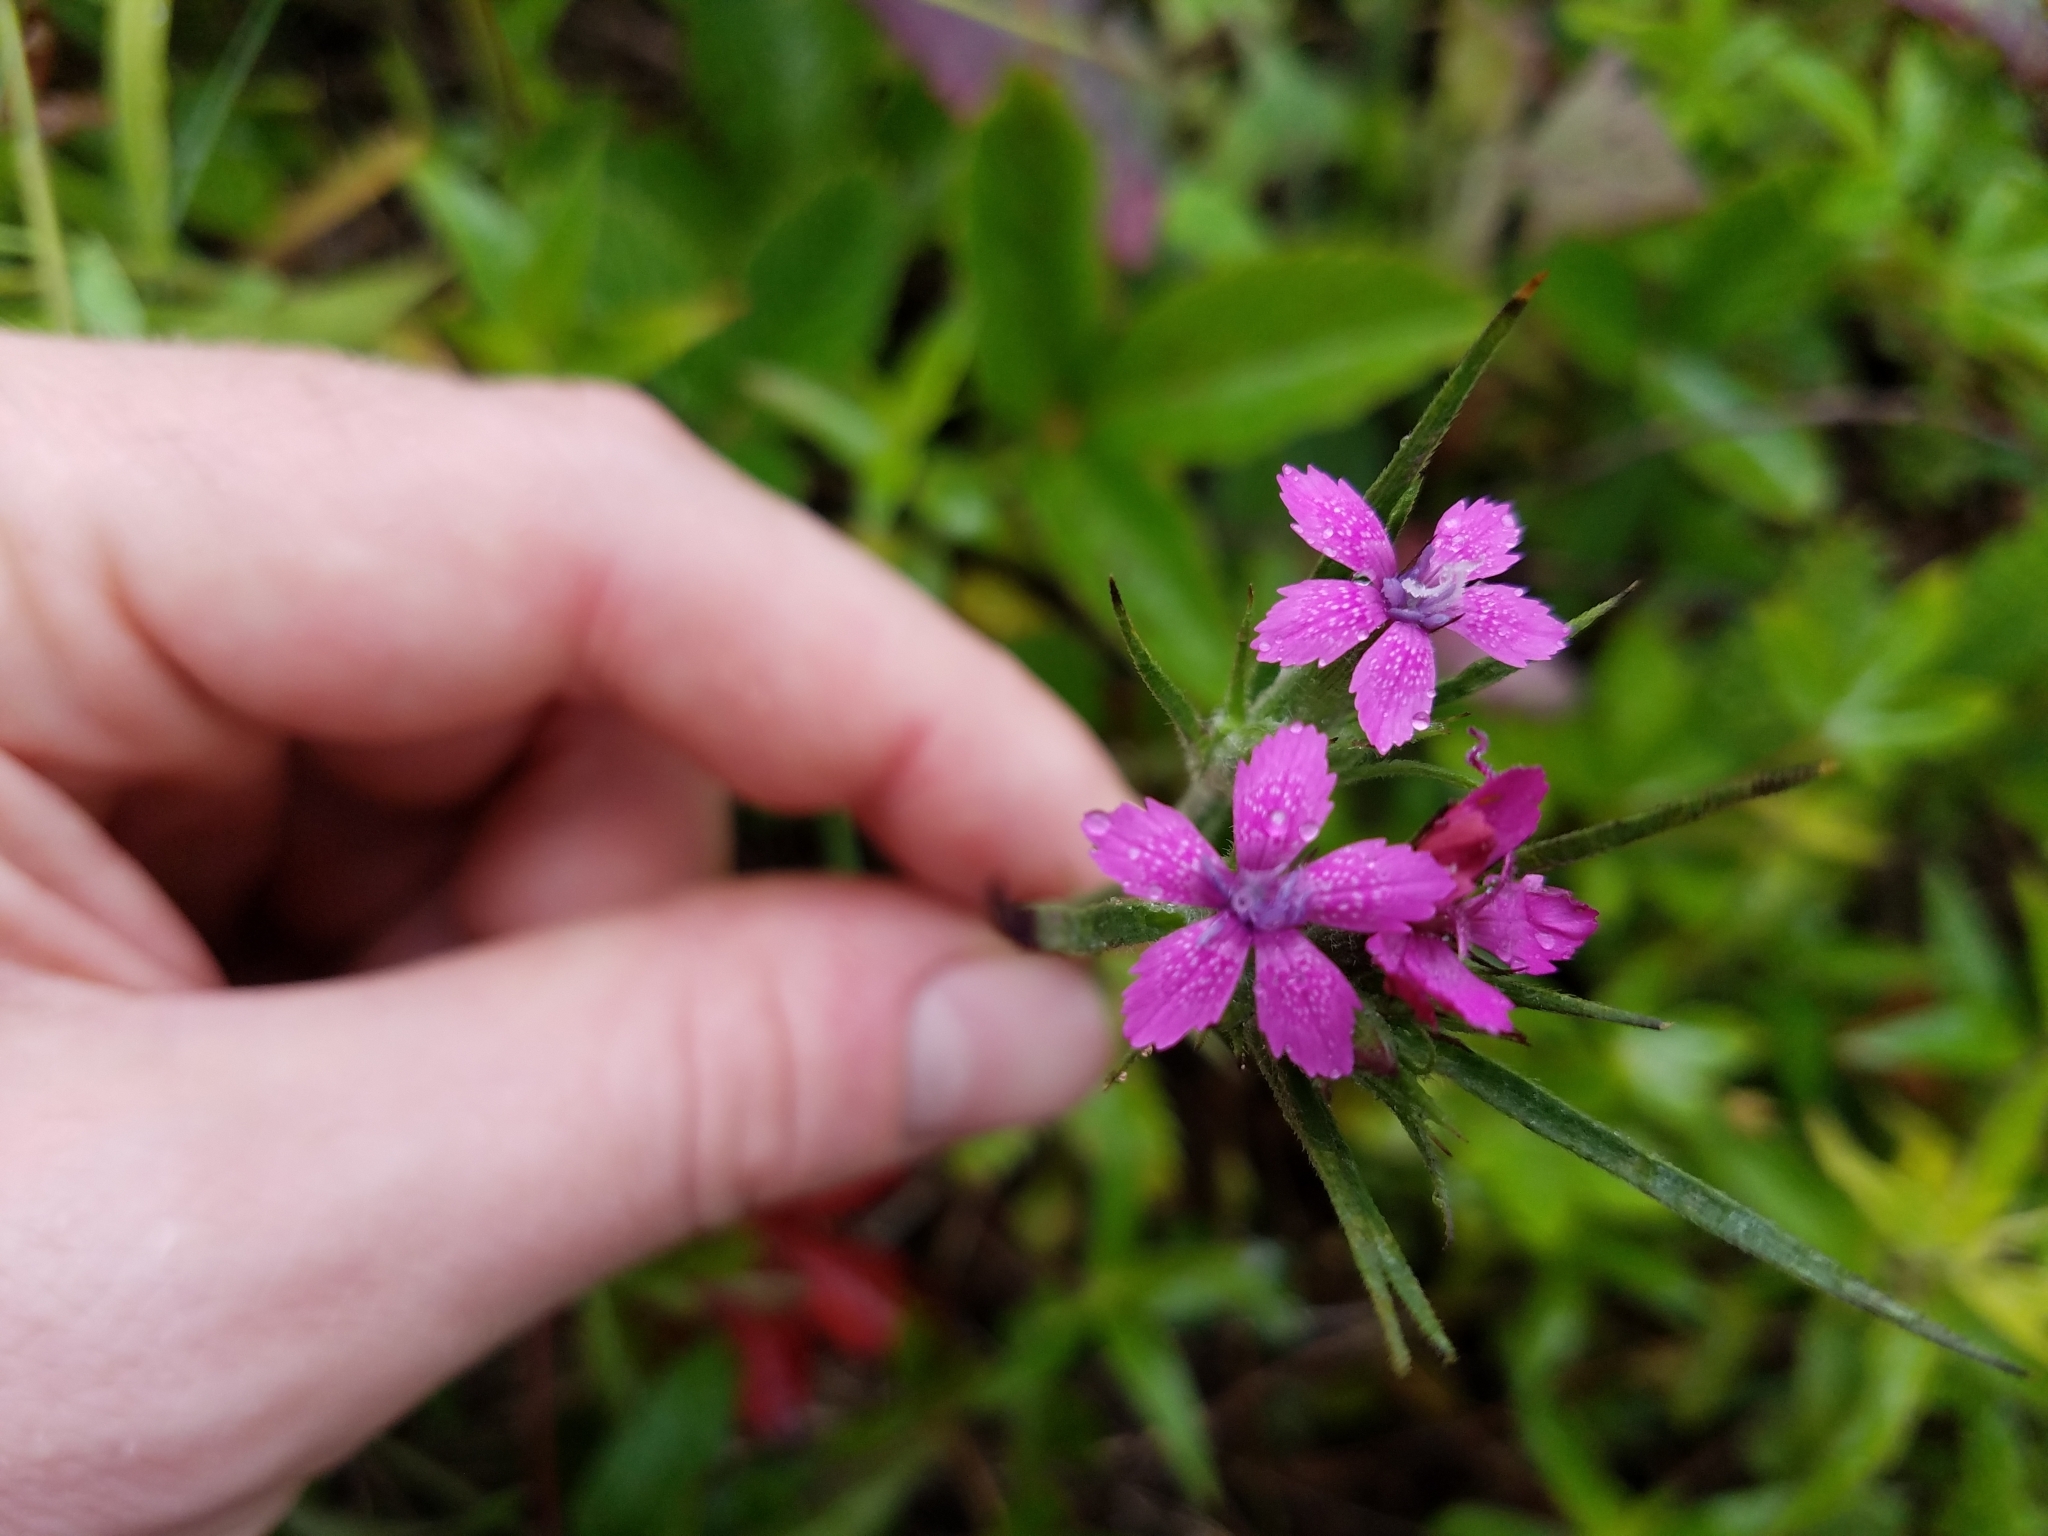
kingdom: Plantae
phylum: Tracheophyta
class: Magnoliopsida
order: Caryophyllales
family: Caryophyllaceae
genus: Dianthus
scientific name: Dianthus armeria
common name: Deptford pink
